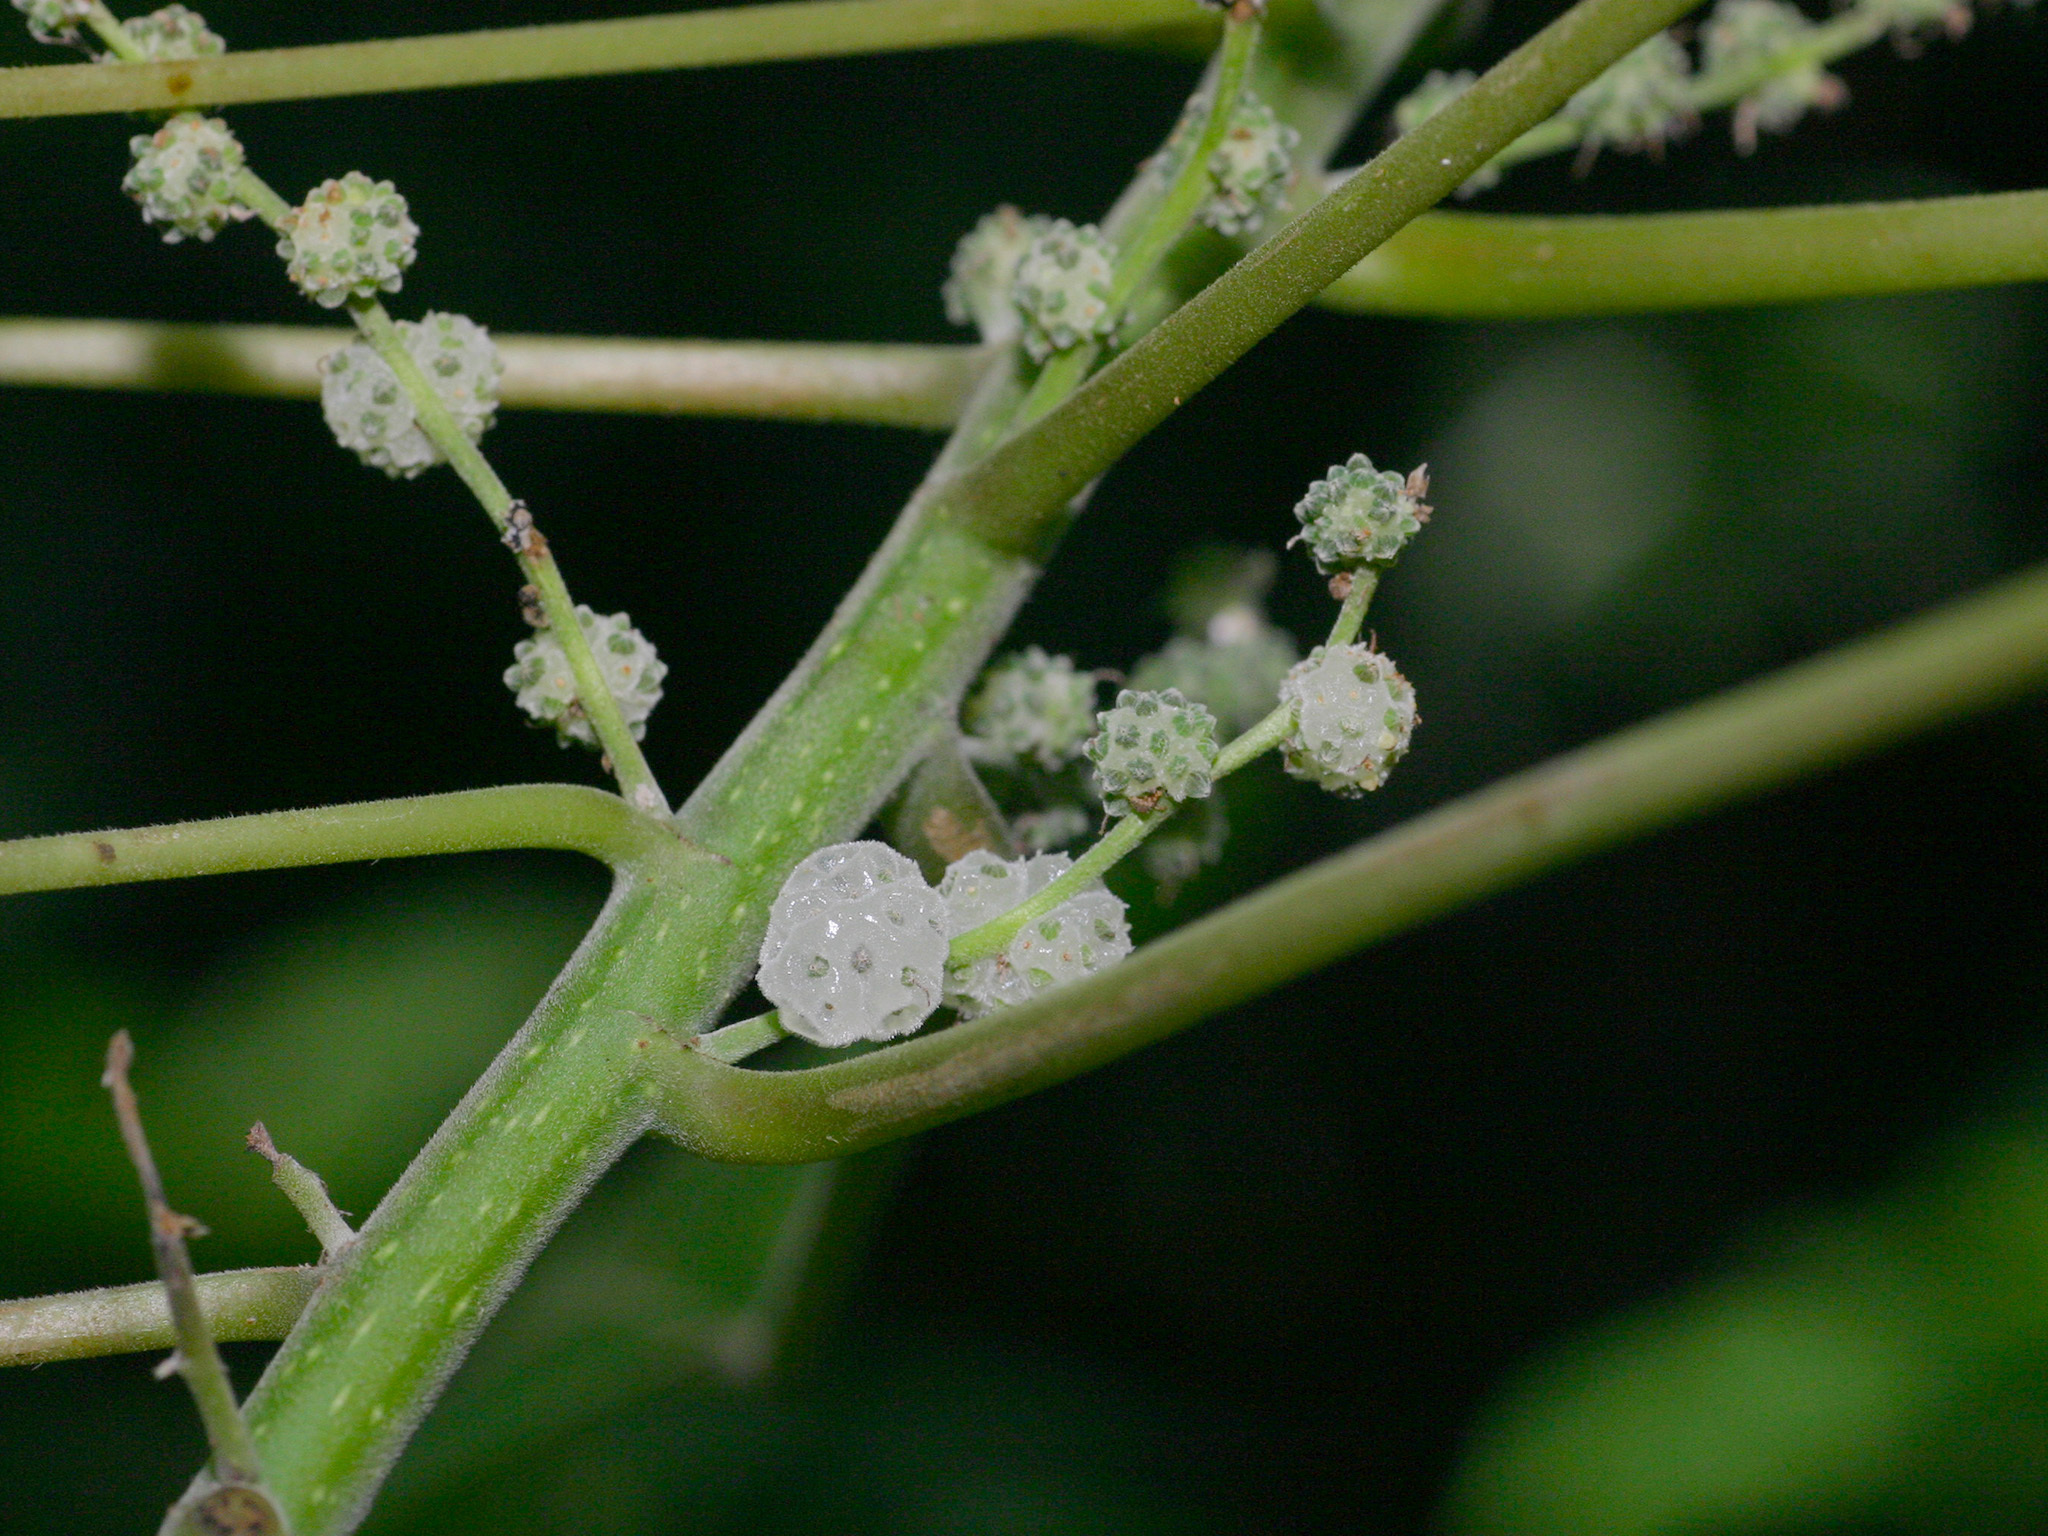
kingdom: Plantae
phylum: Tracheophyta
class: Magnoliopsida
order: Rosales
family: Urticaceae
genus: Pipturus
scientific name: Pipturus argenteus
